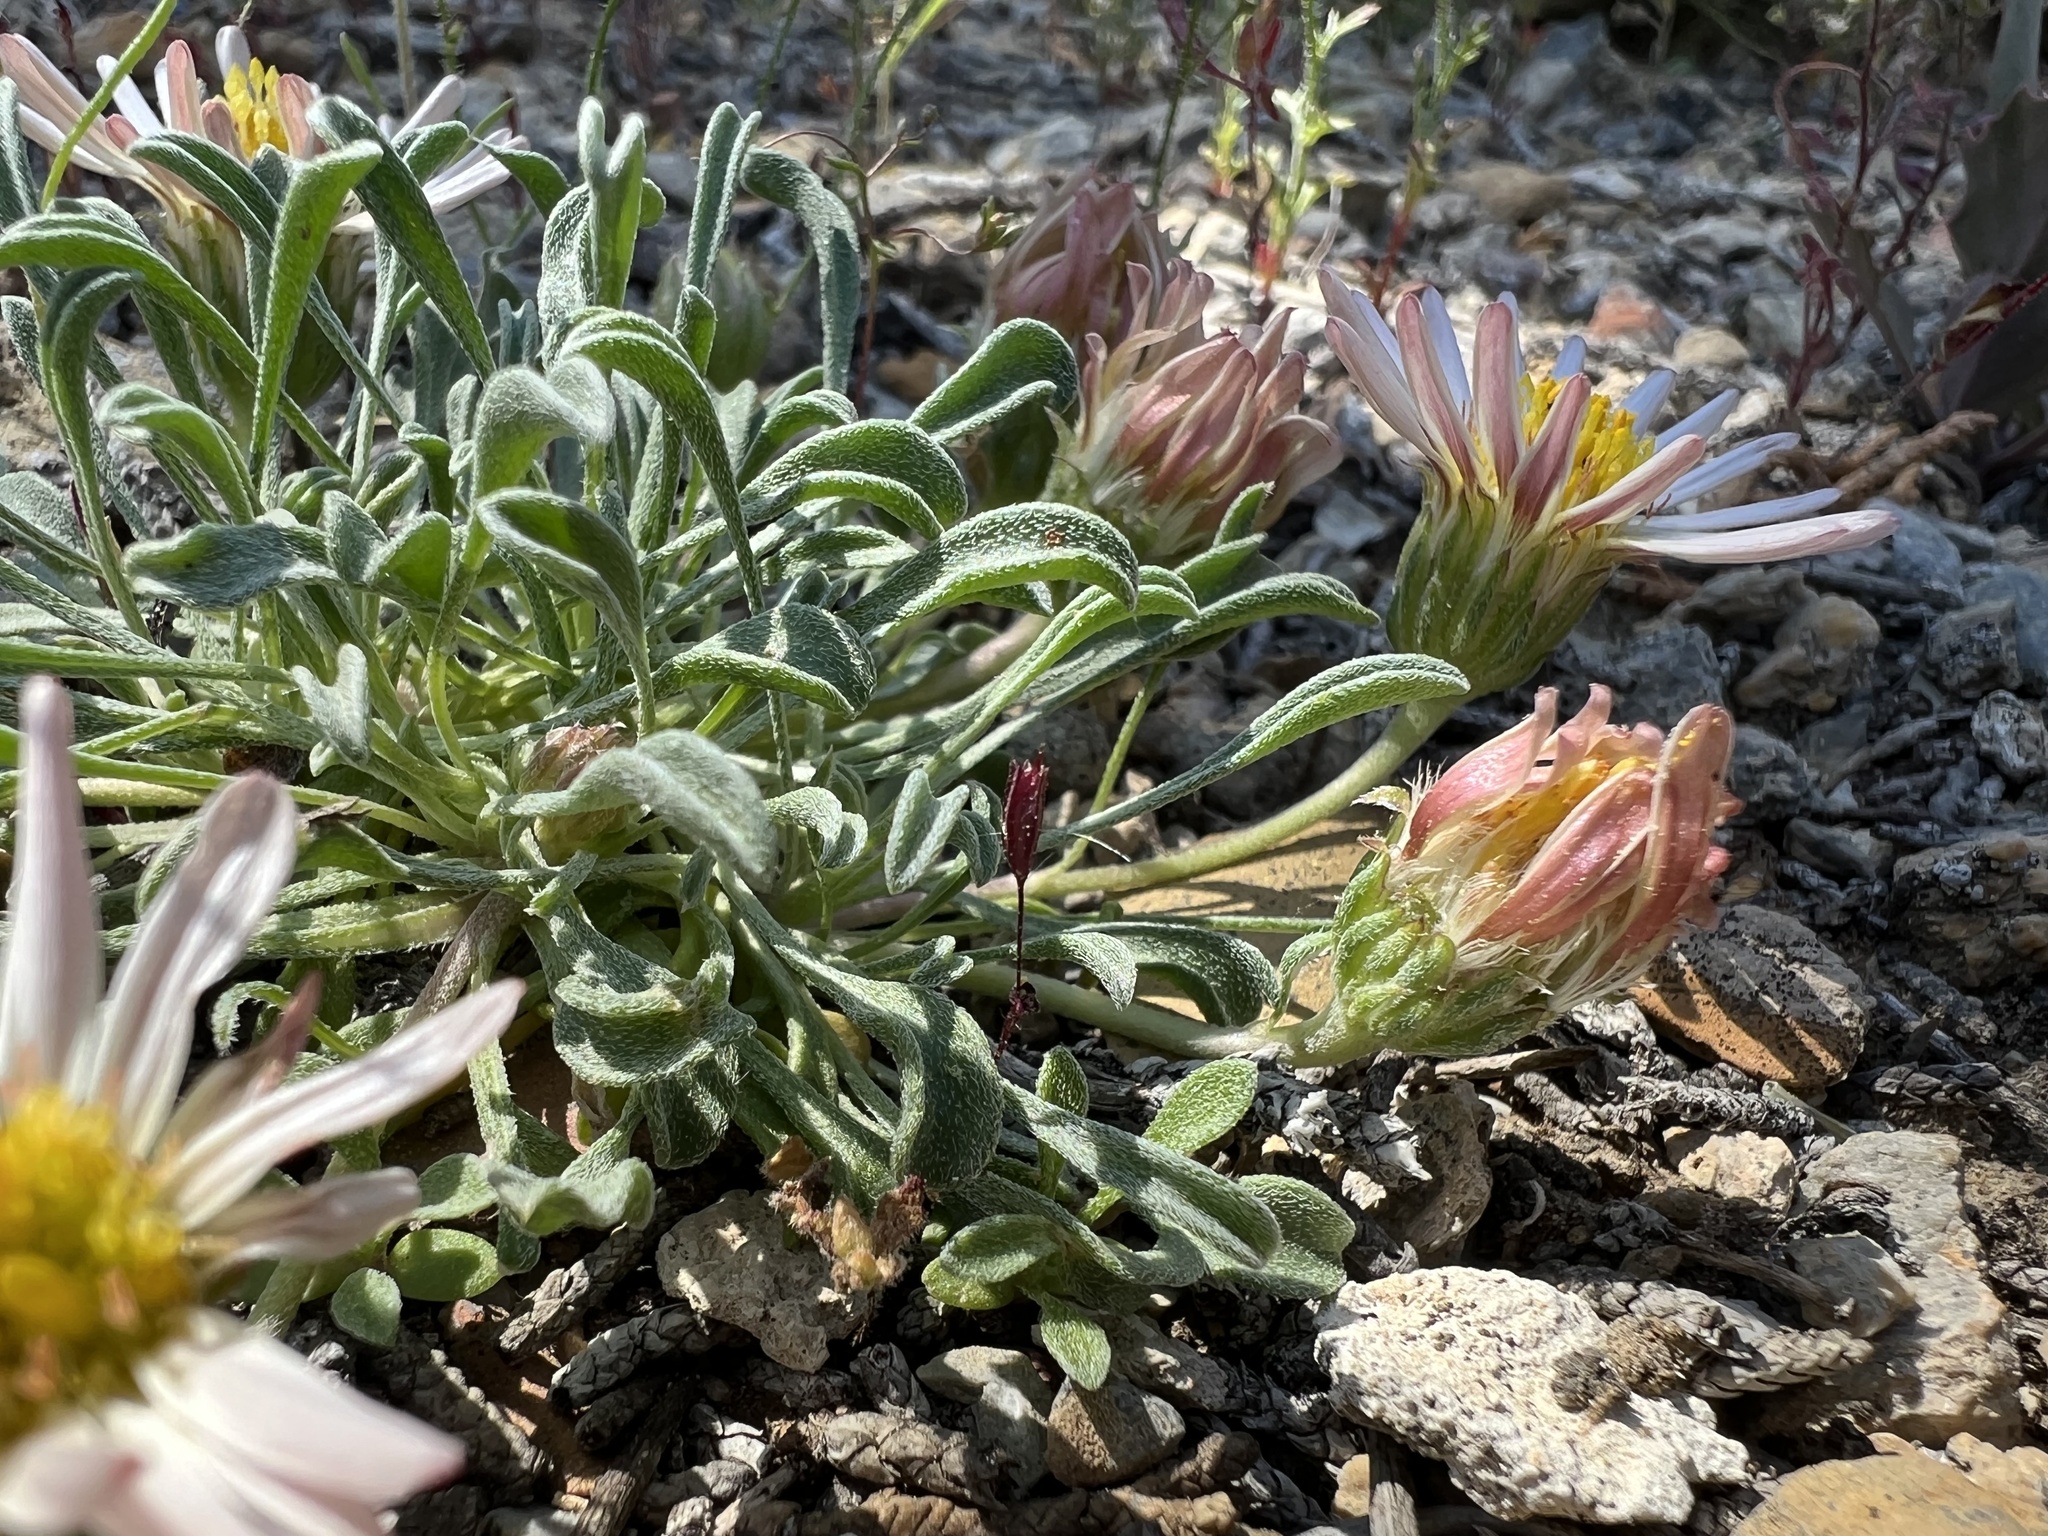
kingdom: Plantae
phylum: Tracheophyta
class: Magnoliopsida
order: Asterales
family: Asteraceae
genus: Townsendia
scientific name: Townsendia scapigera
